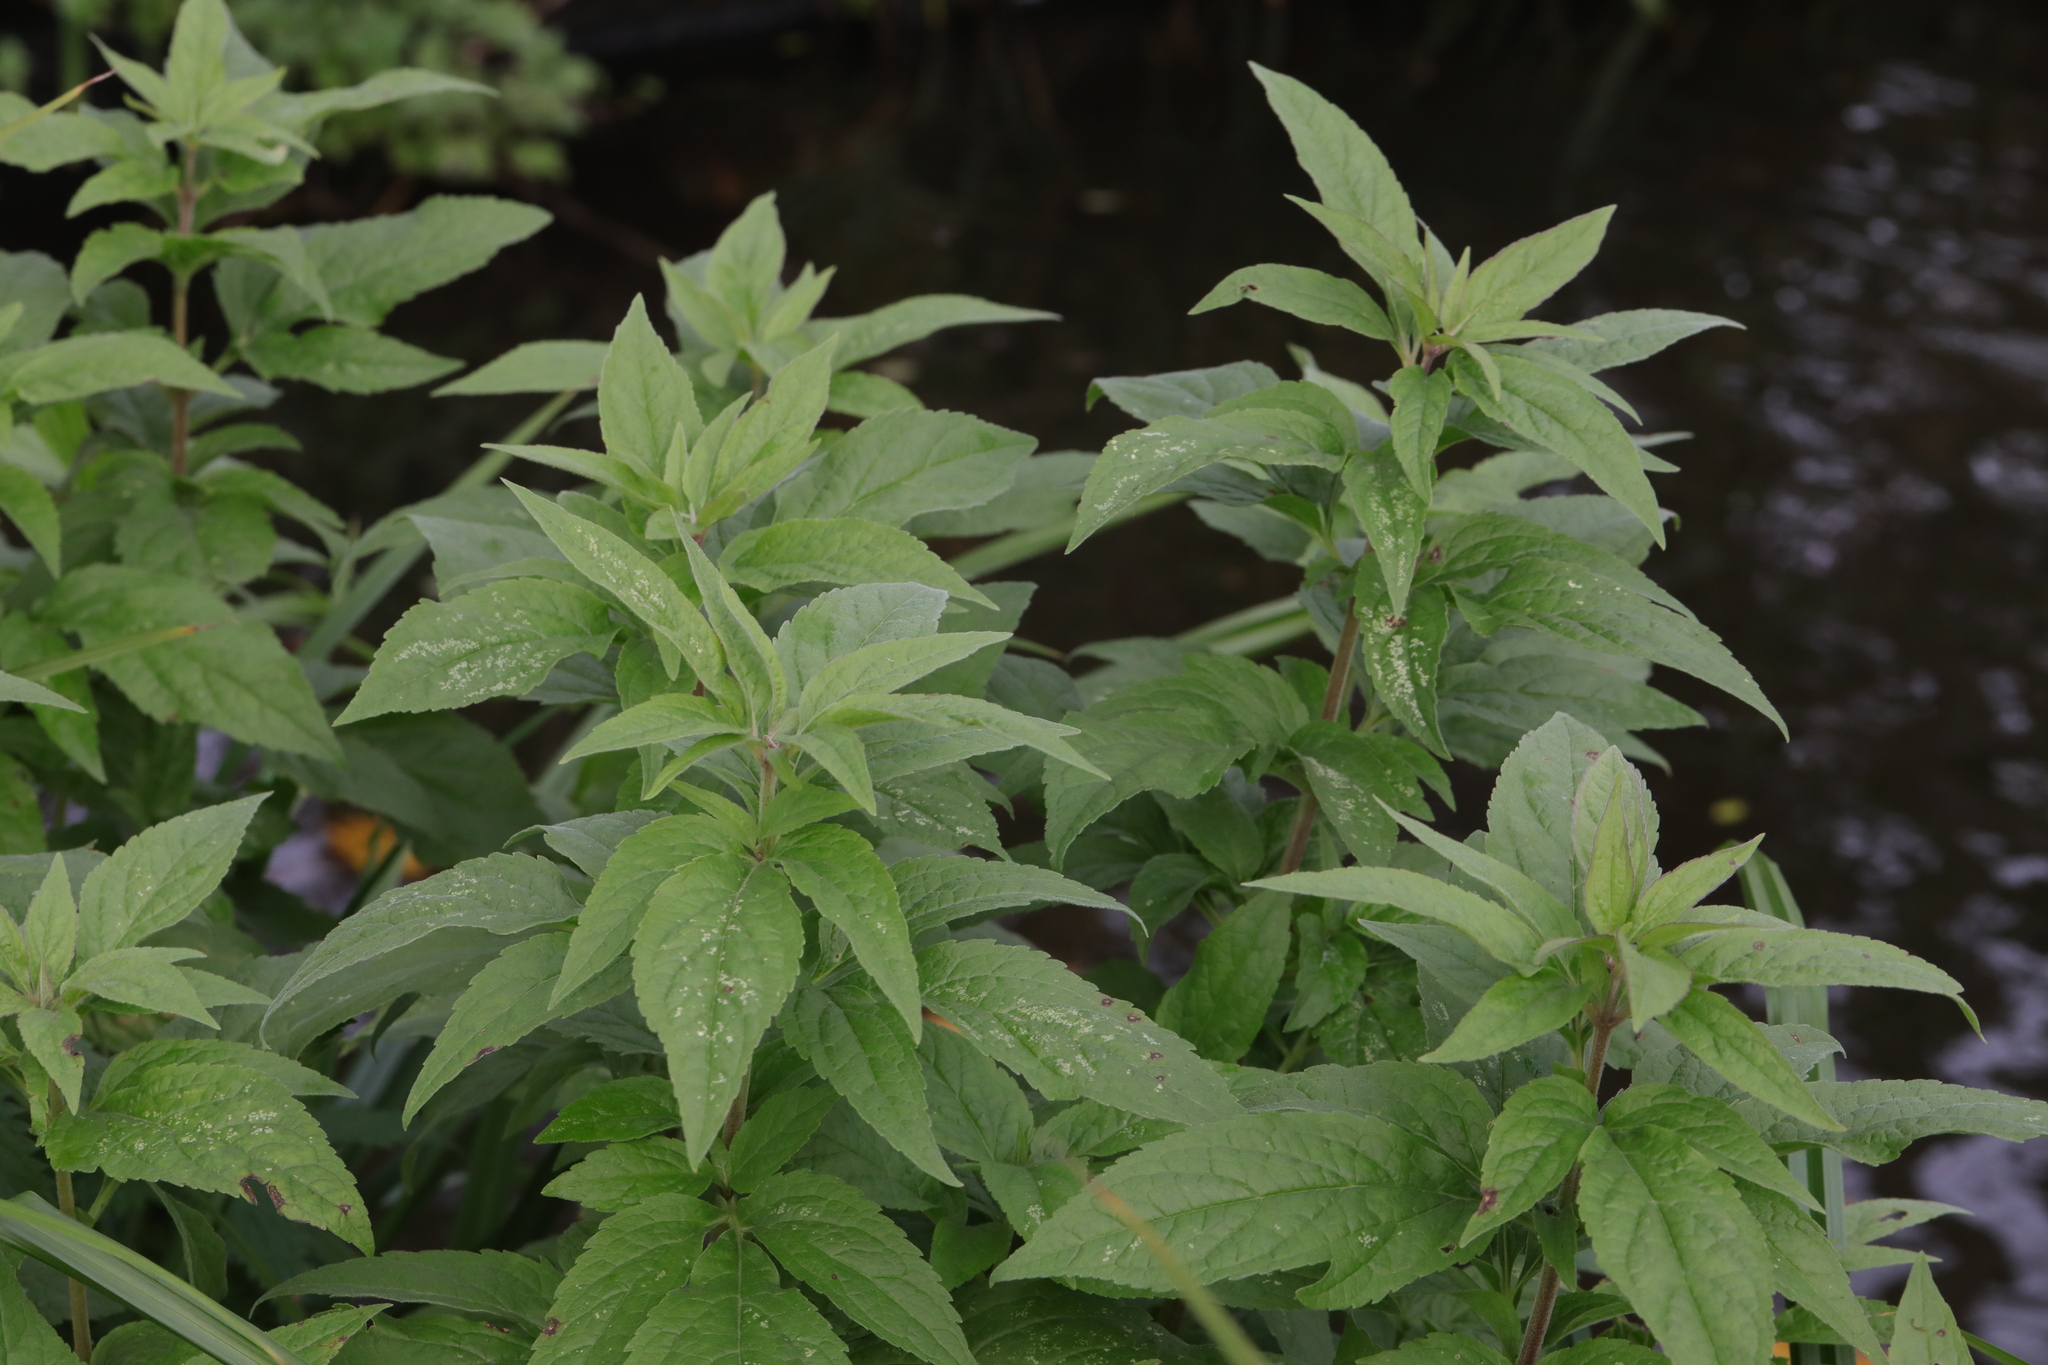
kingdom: Plantae
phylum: Tracheophyta
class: Magnoliopsida
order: Asterales
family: Asteraceae
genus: Eupatorium
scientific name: Eupatorium cannabinum
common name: Hemp-agrimony
